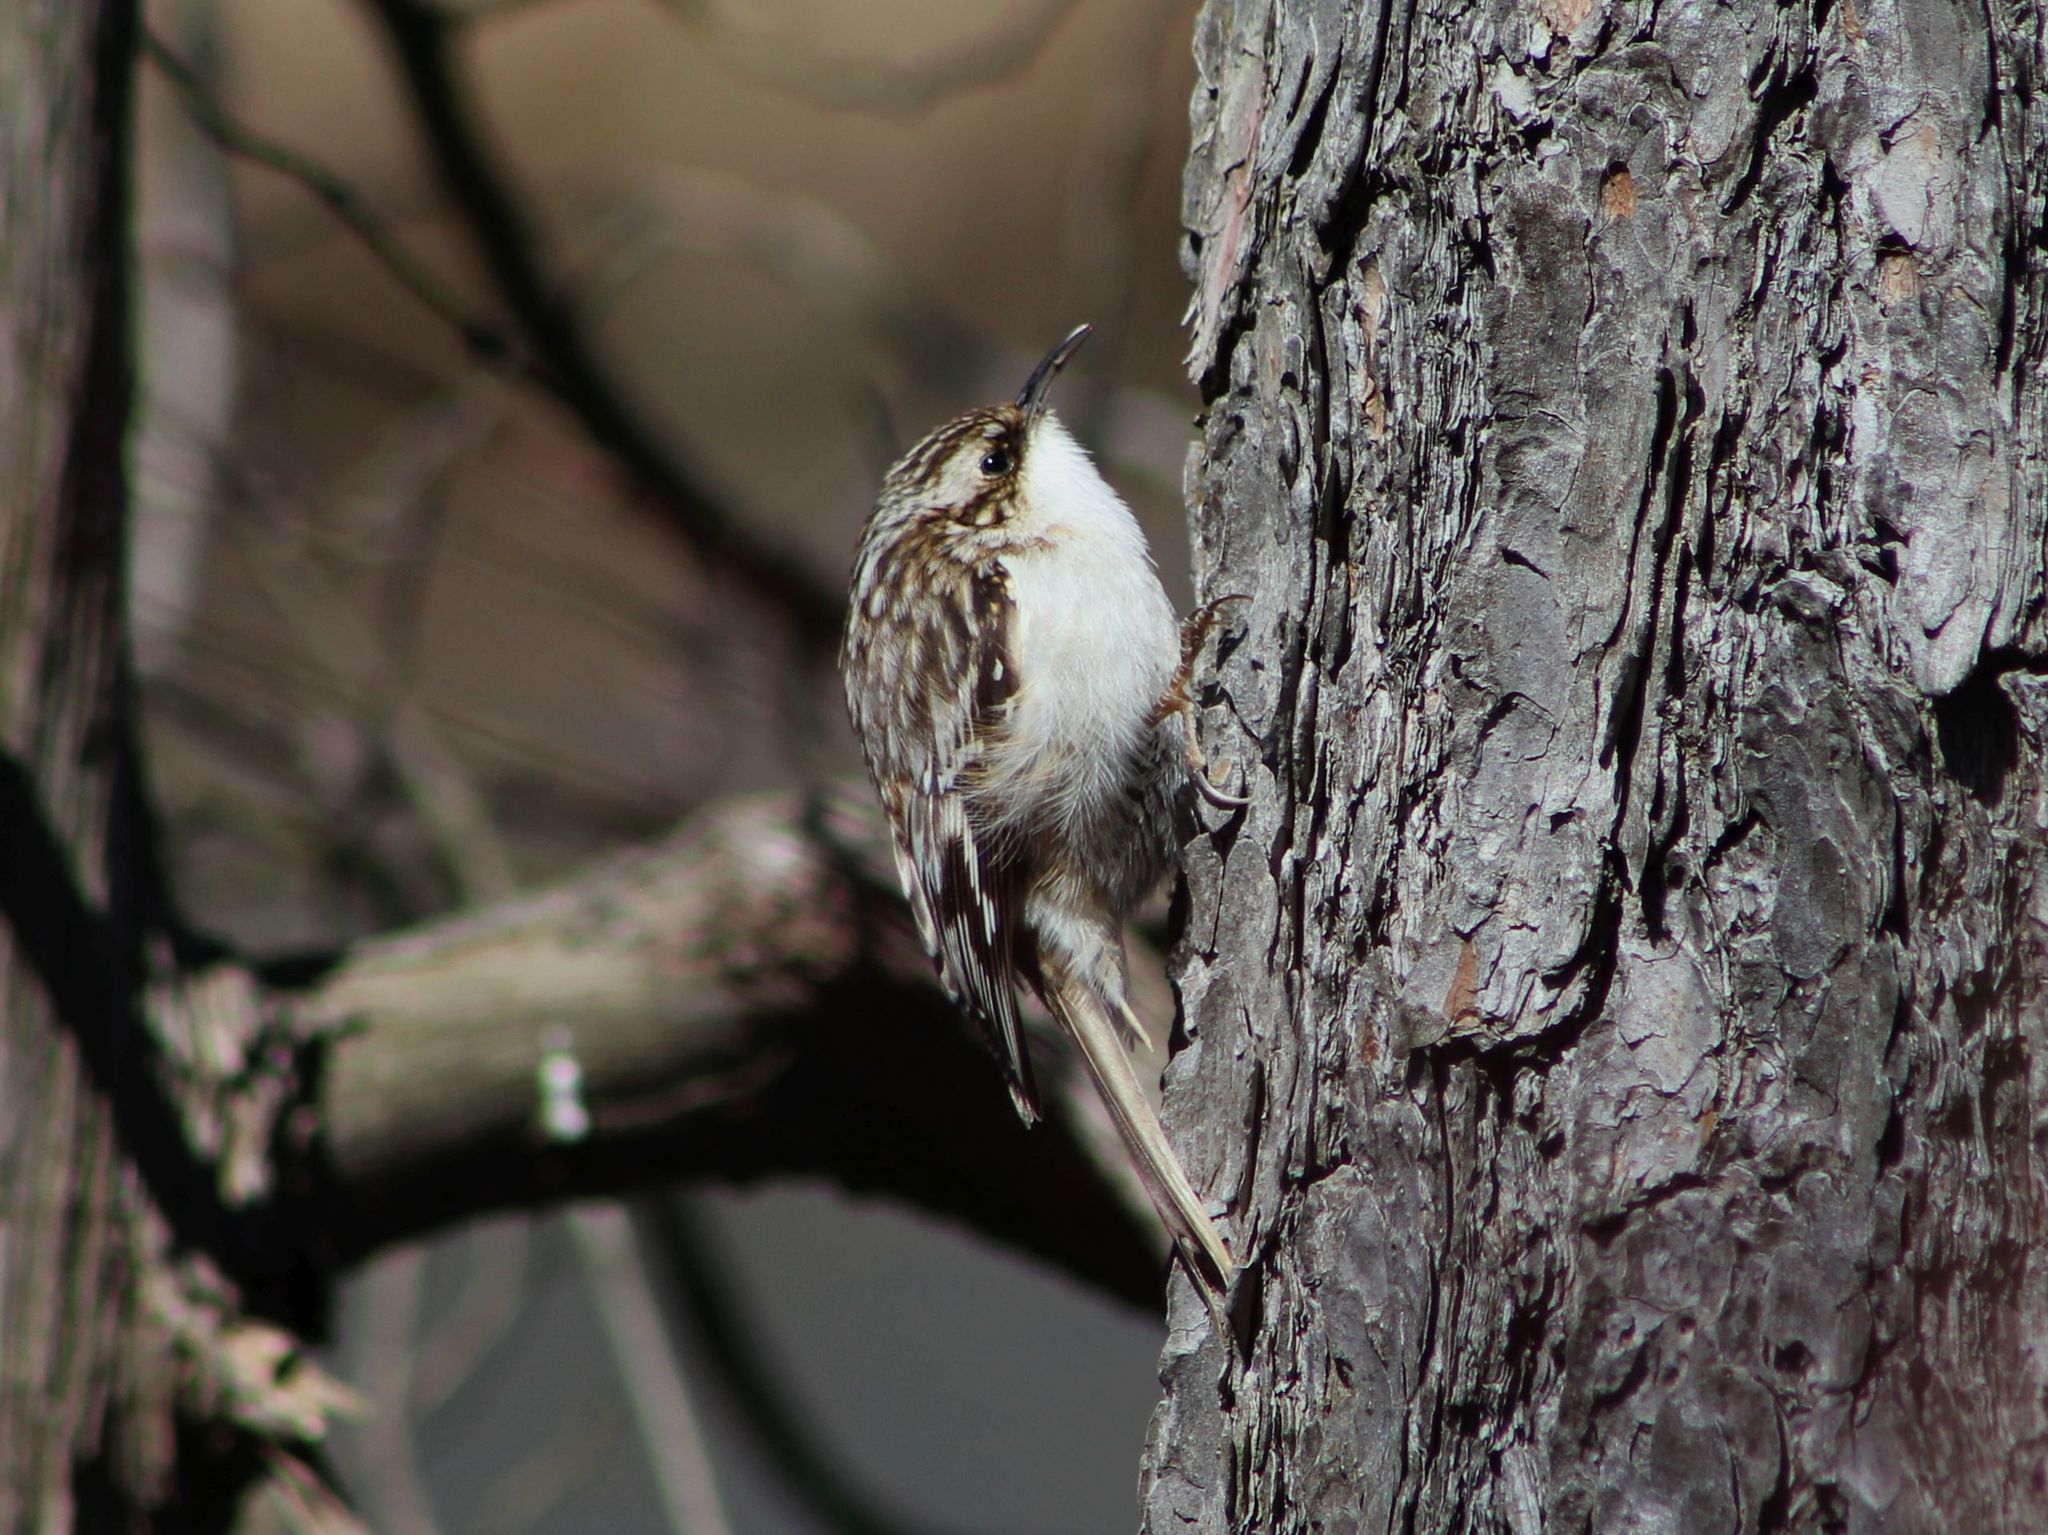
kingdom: Animalia
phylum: Chordata
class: Aves
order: Passeriformes
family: Certhiidae
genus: Certhia
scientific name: Certhia americana
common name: Brown creeper
